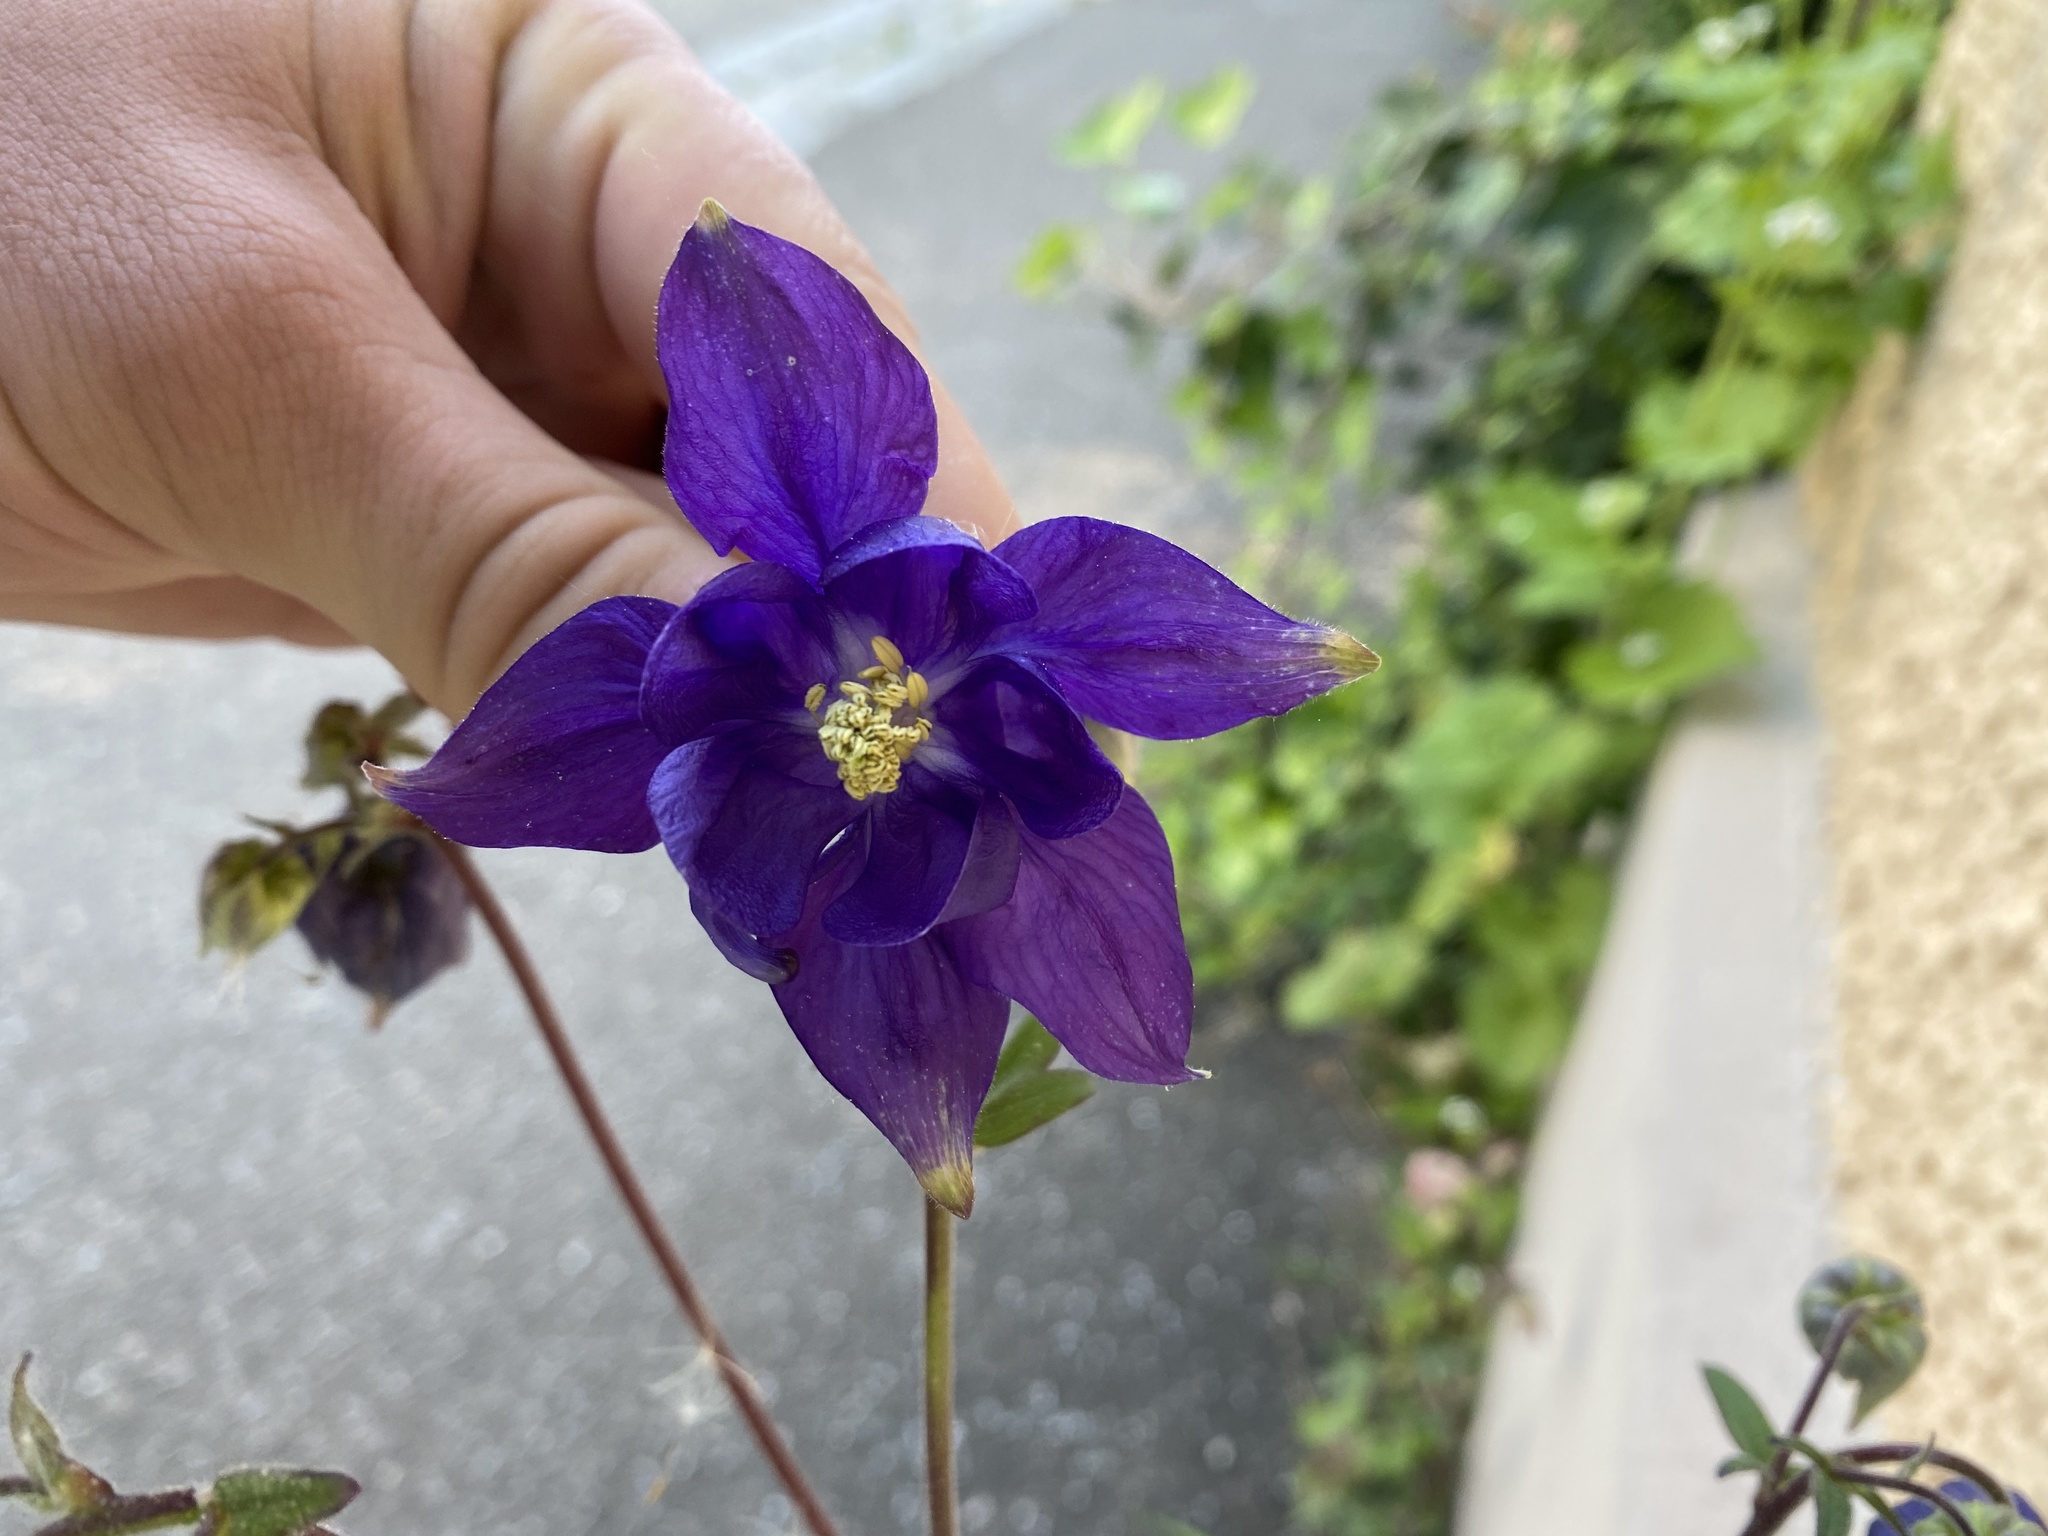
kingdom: Plantae
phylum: Tracheophyta
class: Magnoliopsida
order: Ranunculales
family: Ranunculaceae
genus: Aquilegia
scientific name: Aquilegia vulgaris
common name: Columbine
